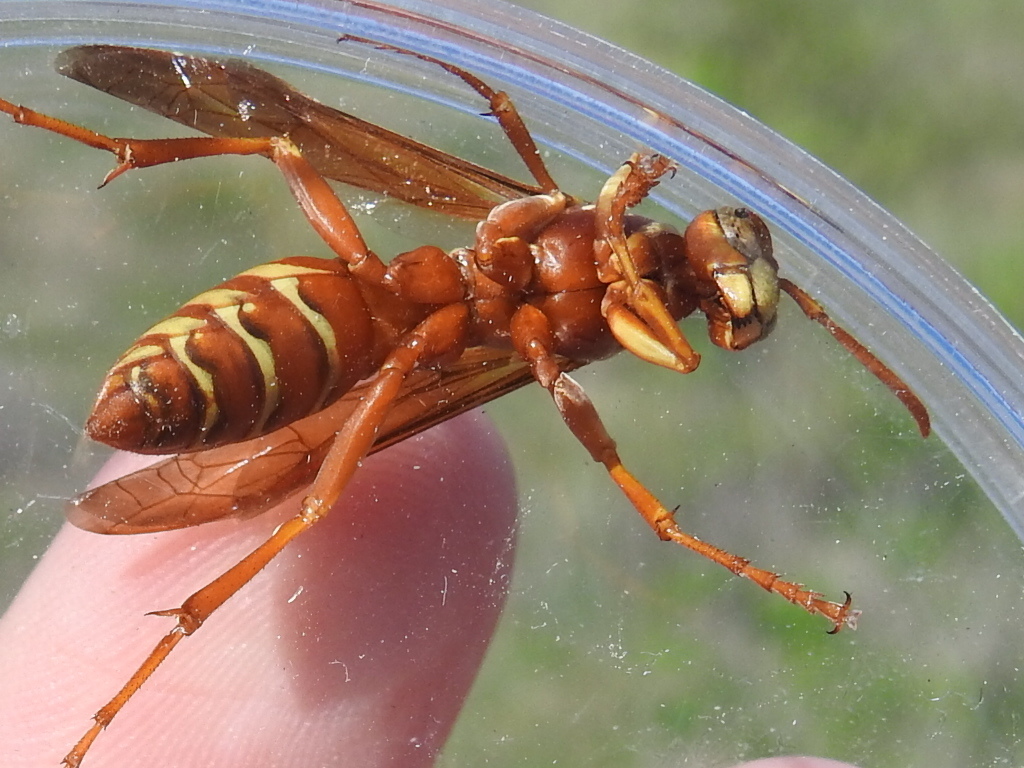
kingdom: Animalia
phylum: Arthropoda
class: Insecta
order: Hymenoptera
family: Eumenidae
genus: Polistes
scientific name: Polistes apachus
